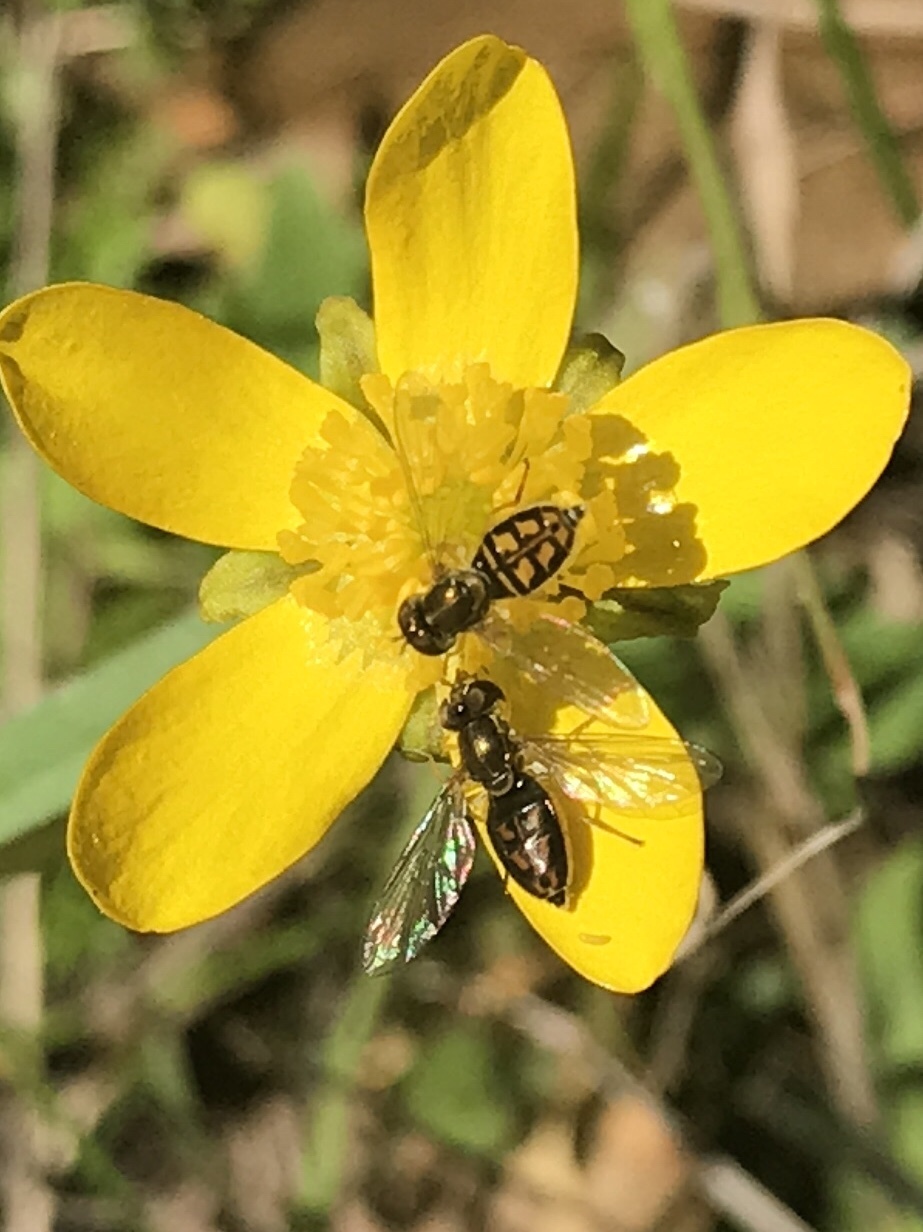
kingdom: Animalia
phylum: Arthropoda
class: Insecta
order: Diptera
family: Syrphidae
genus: Toxomerus
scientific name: Toxomerus marginatus
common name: Syrphid fly
